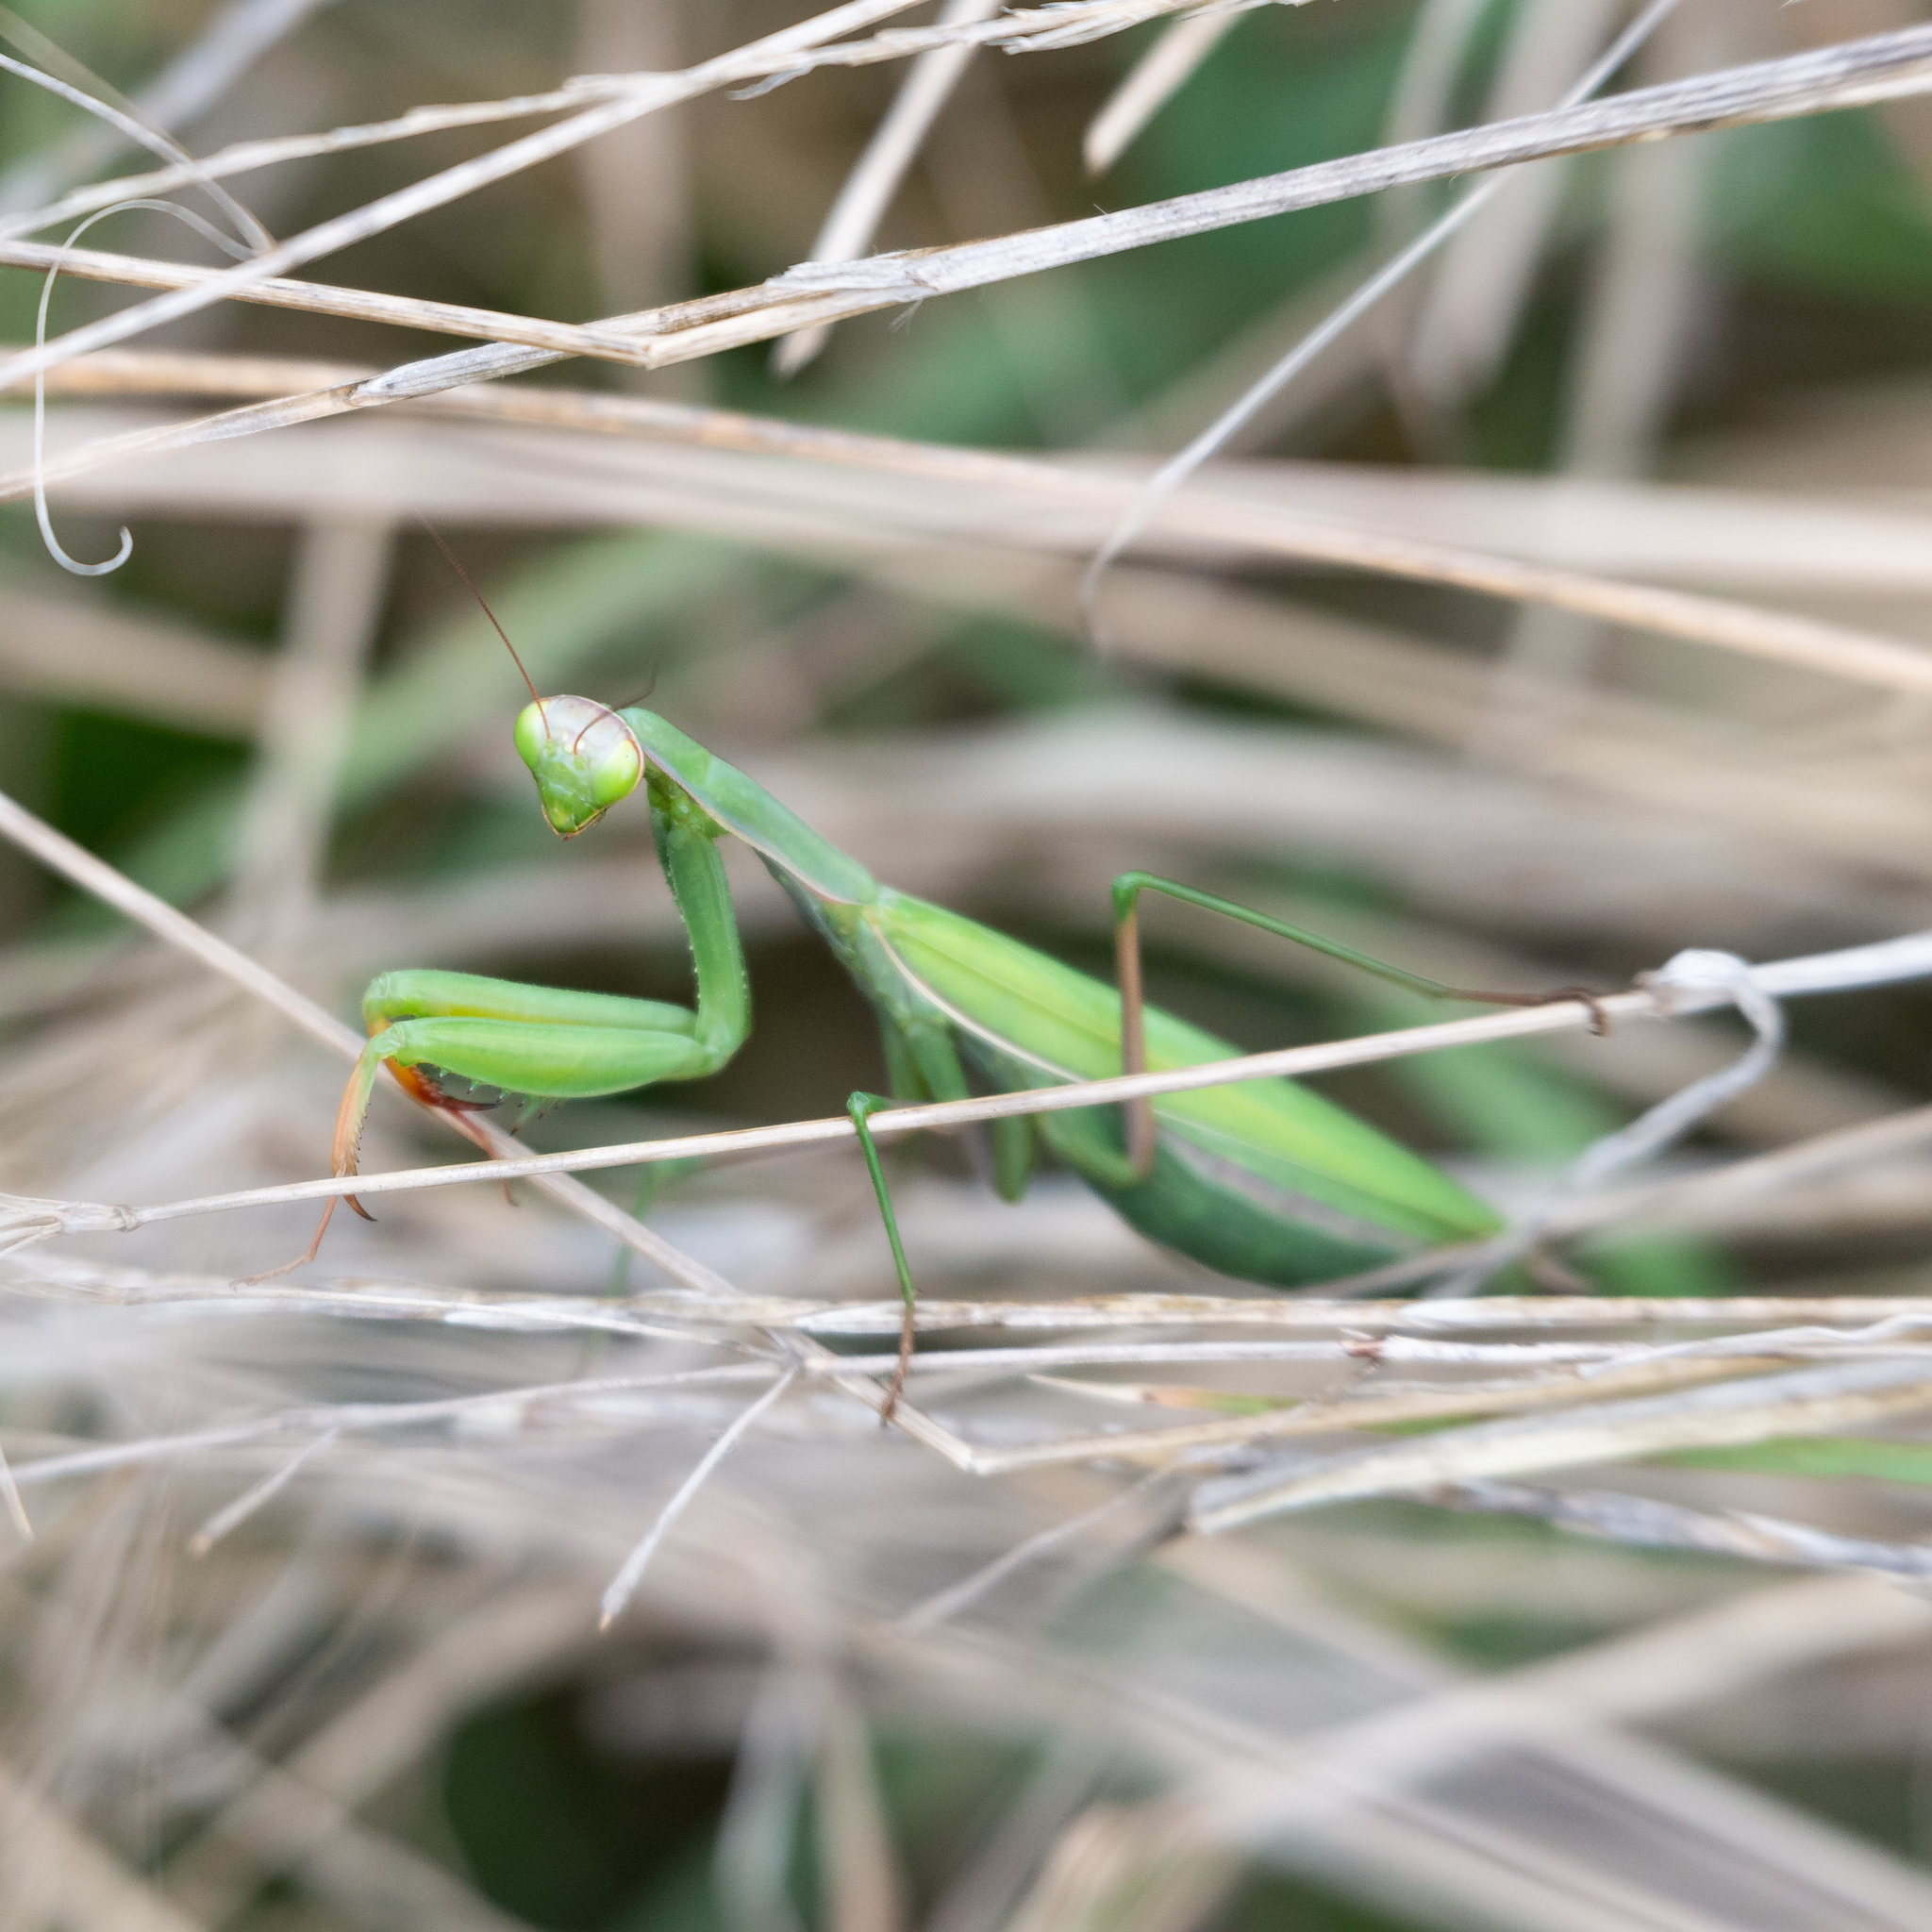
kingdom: Animalia
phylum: Arthropoda
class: Insecta
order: Mantodea
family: Mantidae
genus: Mantis
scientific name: Mantis religiosa
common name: Praying mantis
